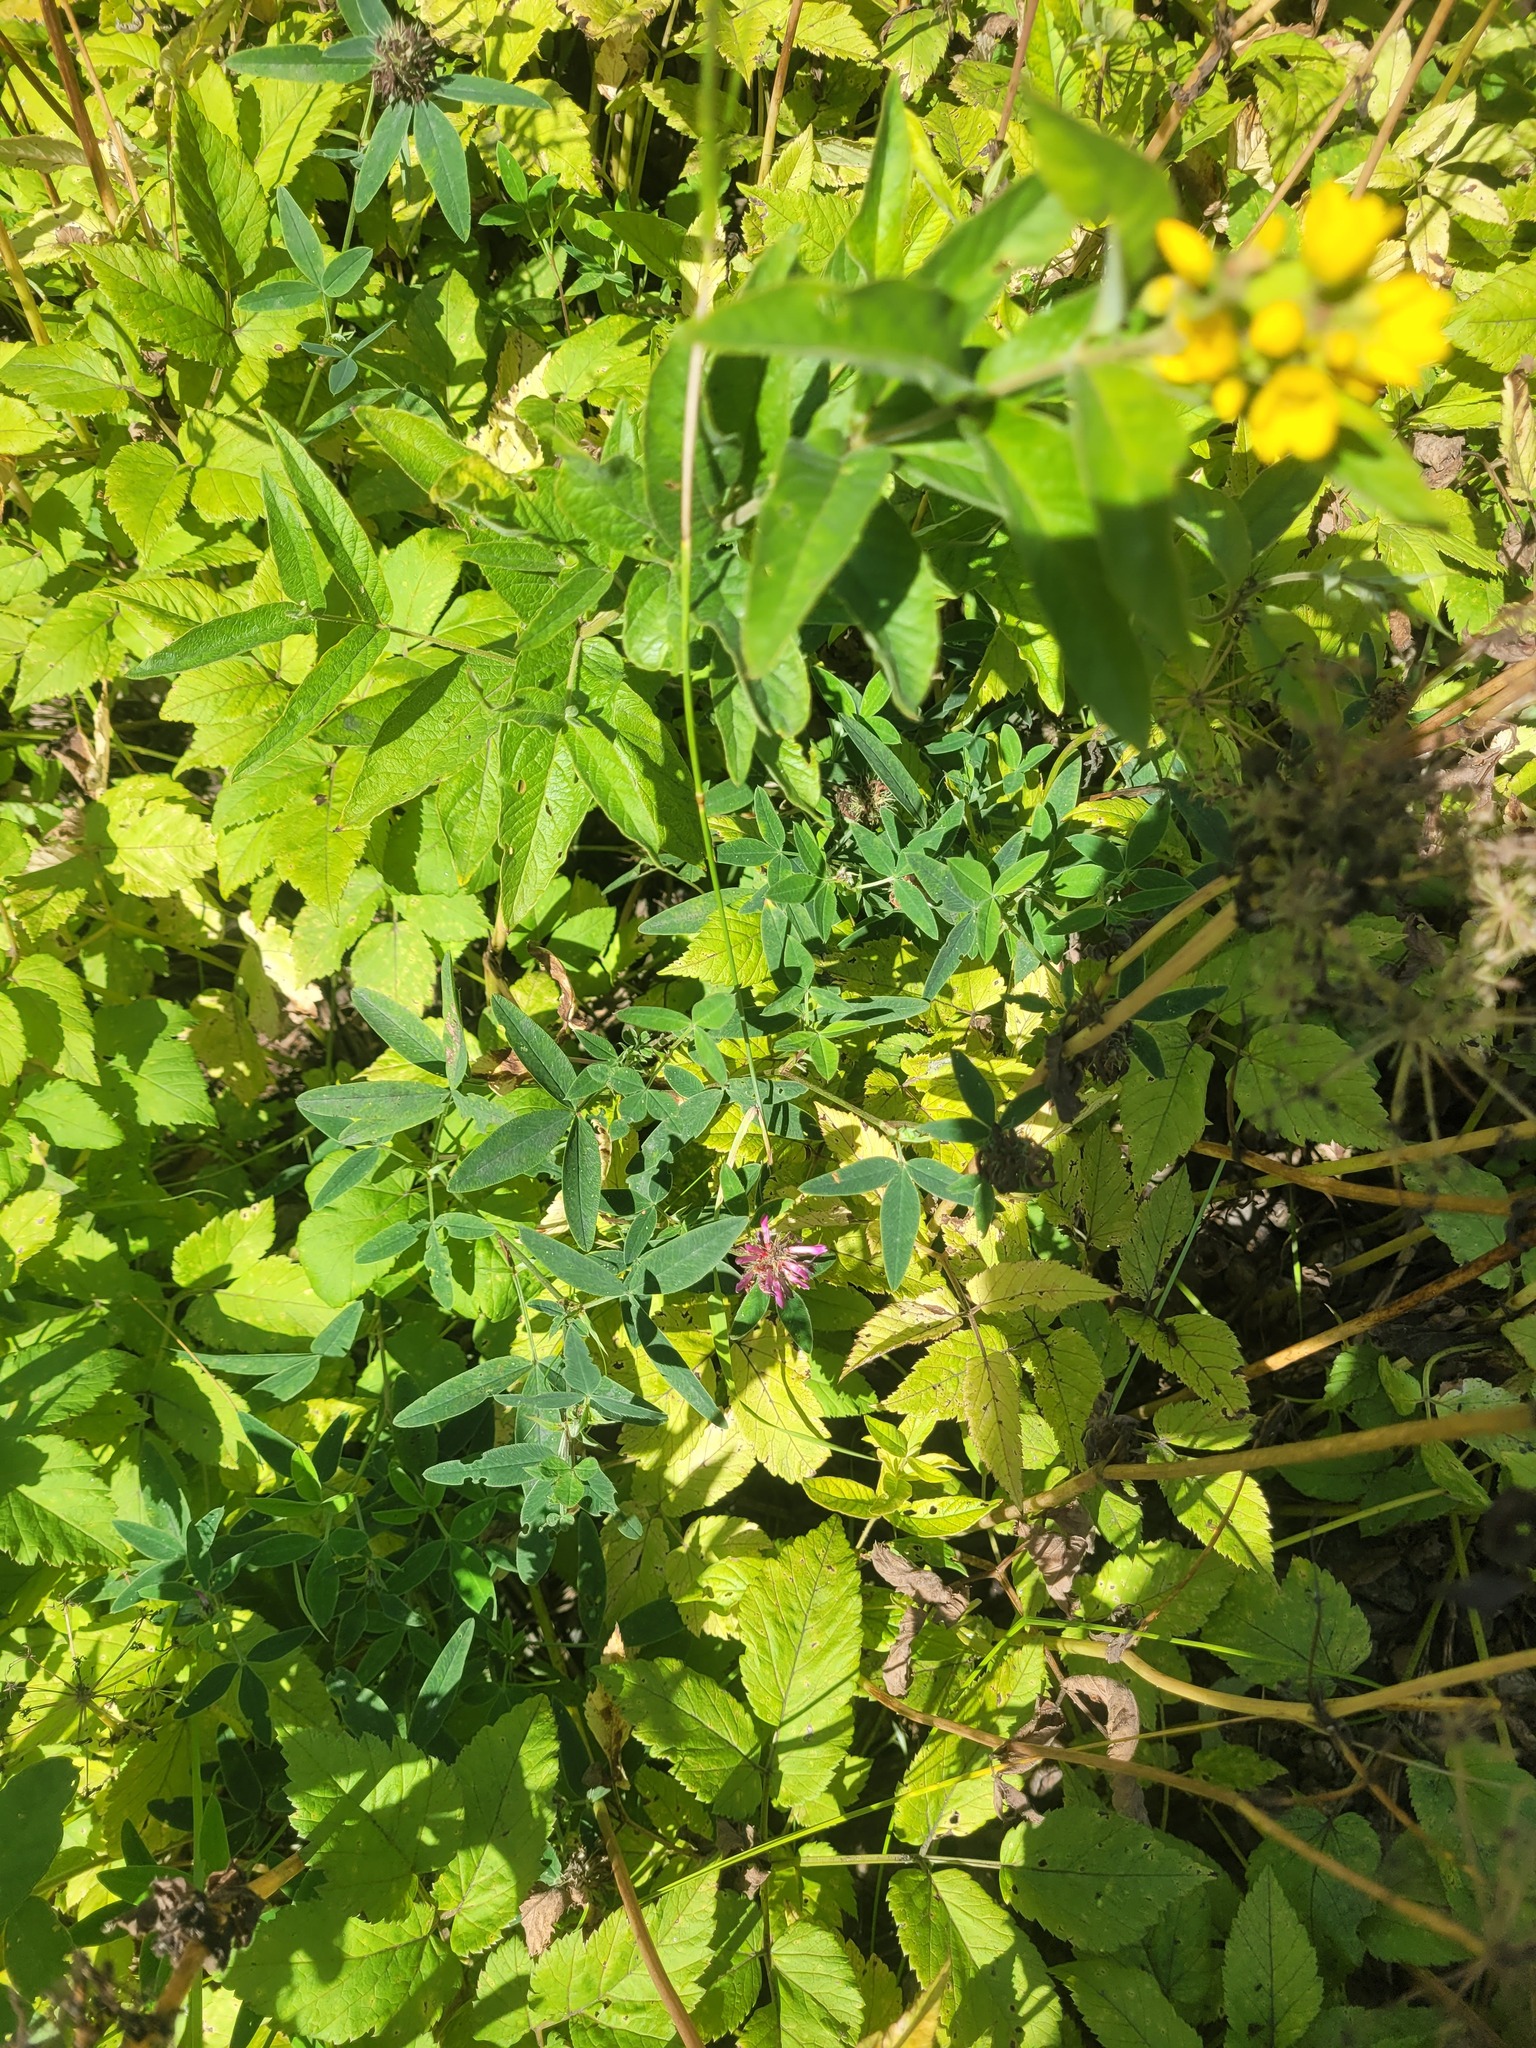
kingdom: Plantae
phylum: Tracheophyta
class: Magnoliopsida
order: Fabales
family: Fabaceae
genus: Trifolium
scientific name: Trifolium medium
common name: Zigzag clover
